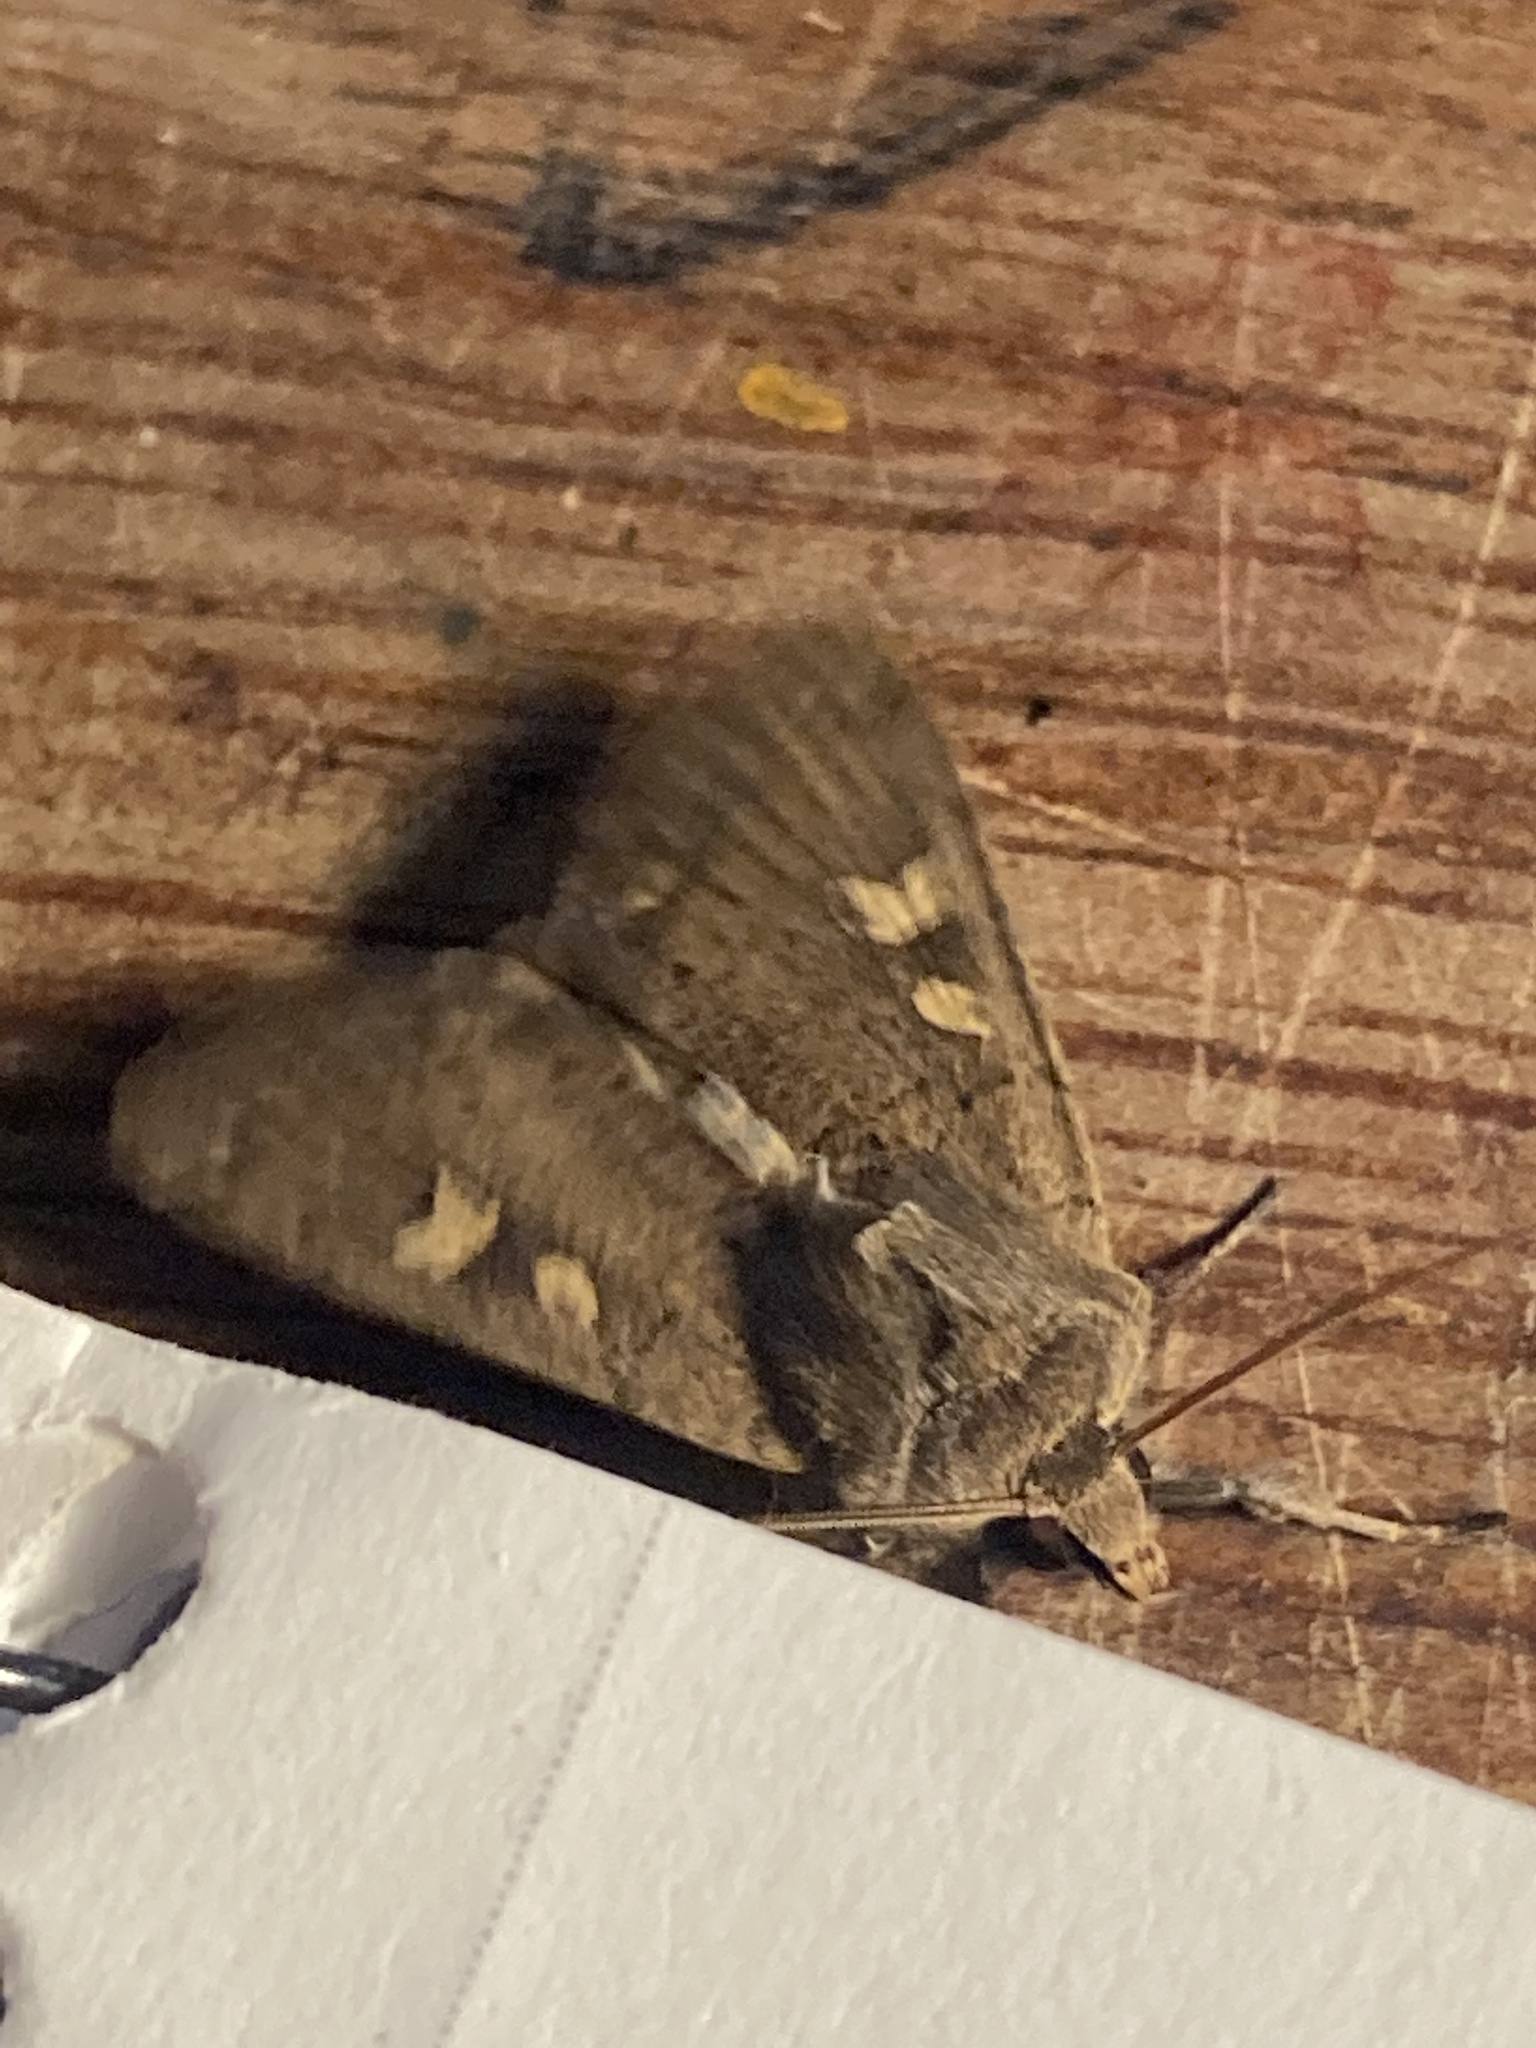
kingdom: Animalia
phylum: Arthropoda
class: Insecta
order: Lepidoptera
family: Noctuidae
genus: Xestia
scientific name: Xestia xanthographa
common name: Square-spot rustic
